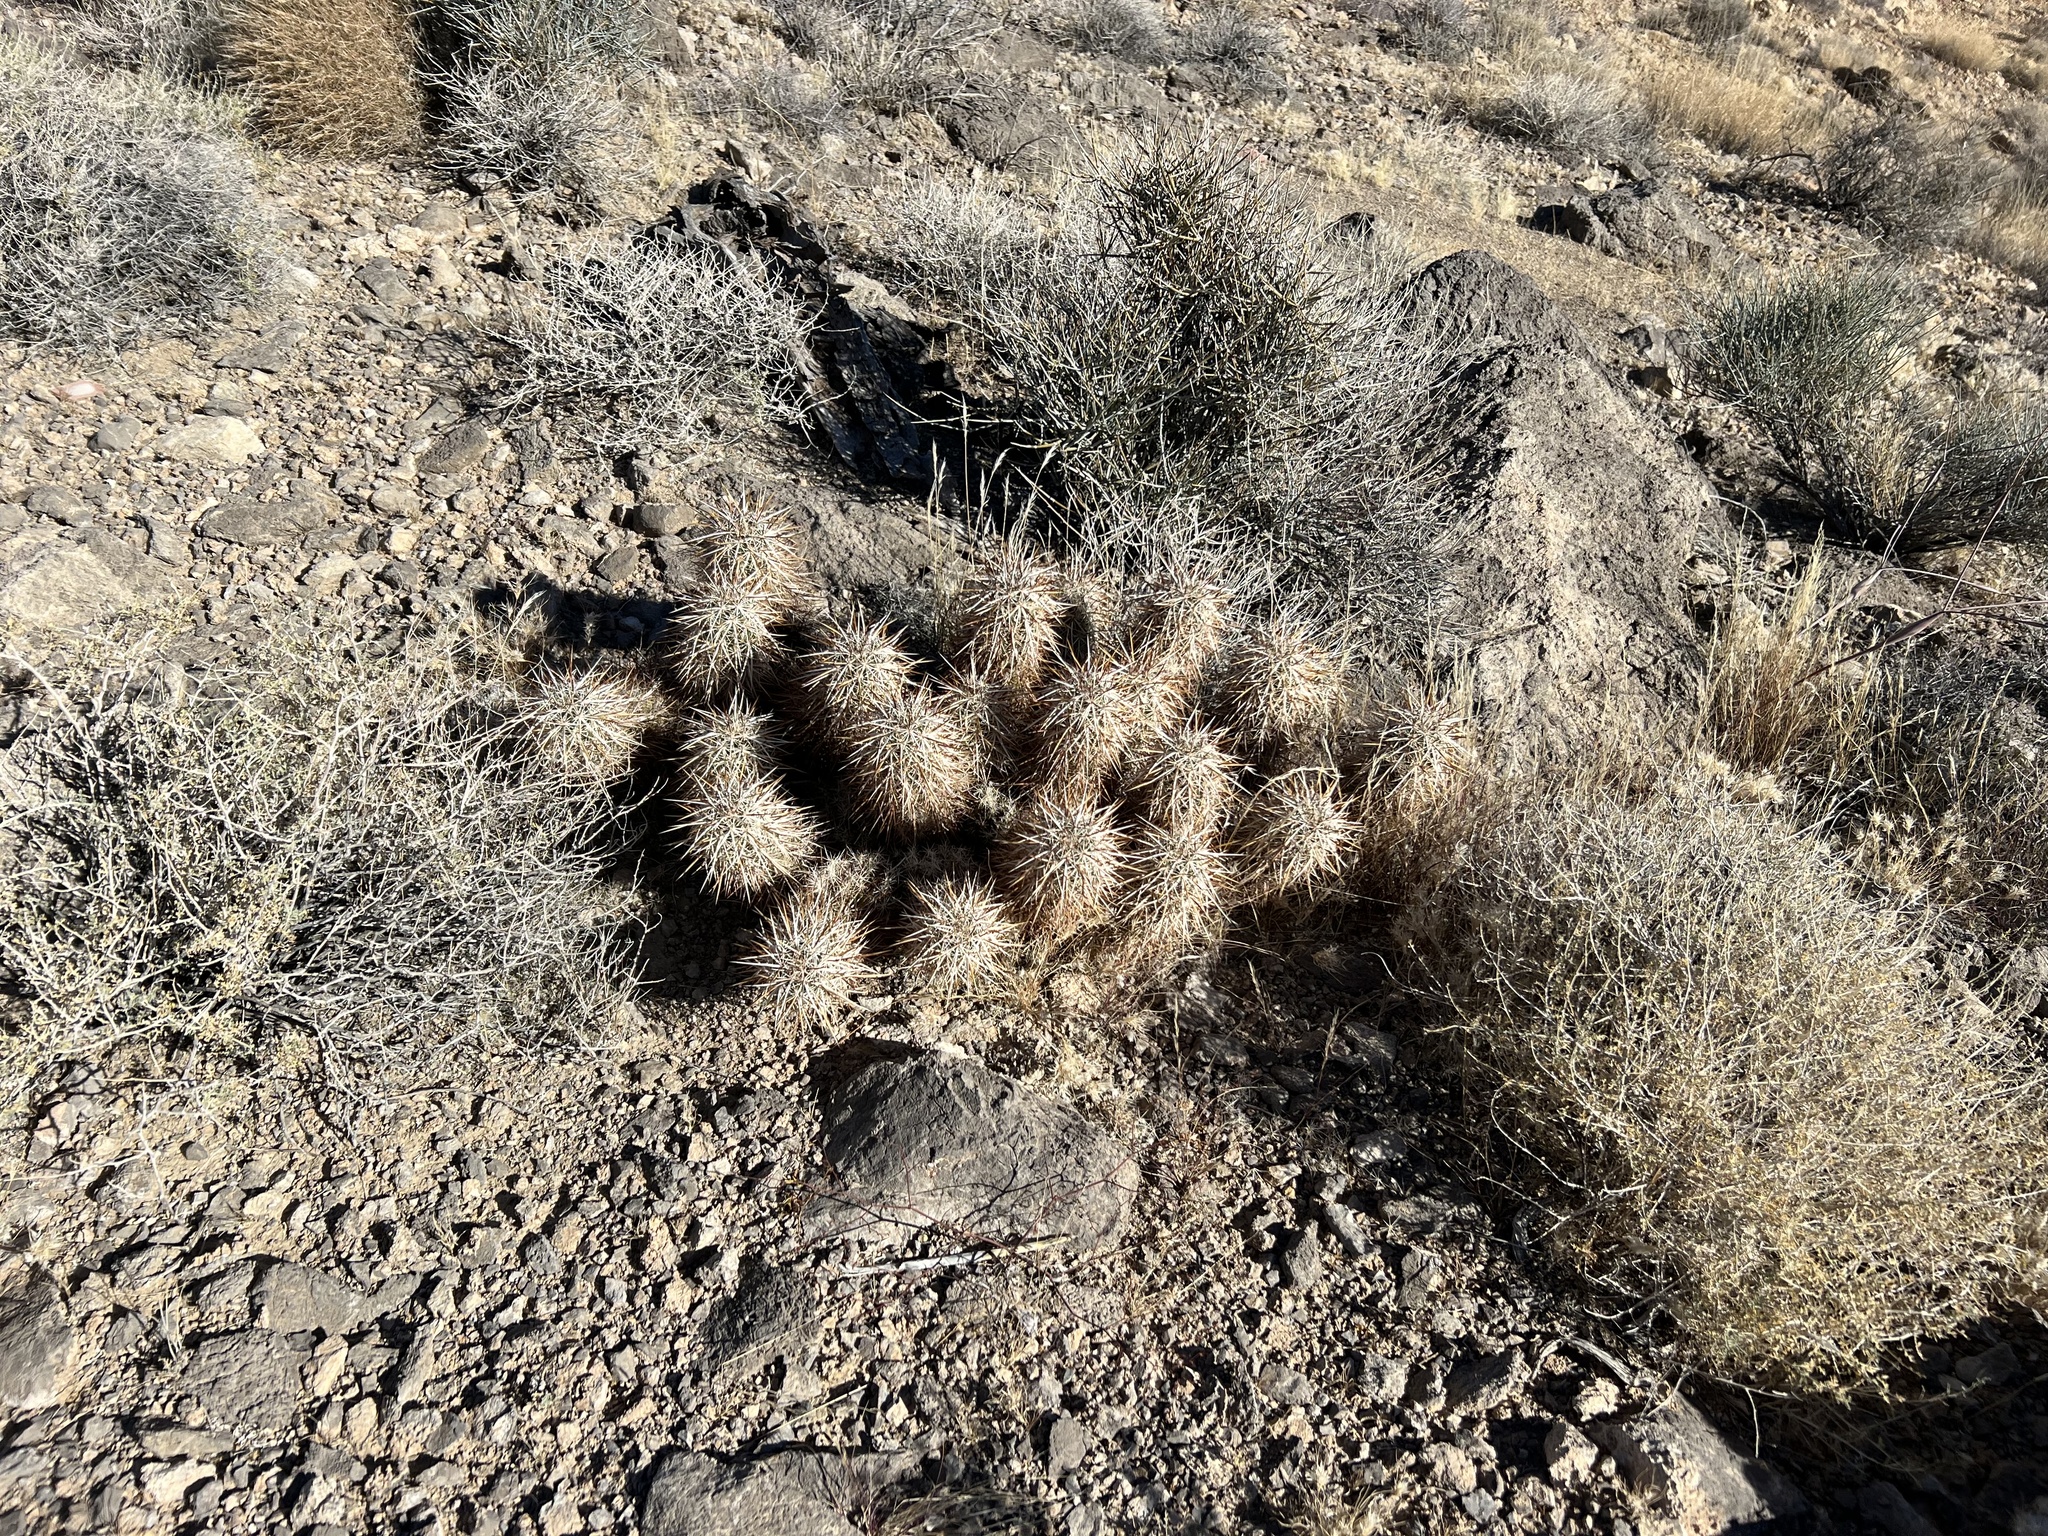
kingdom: Plantae
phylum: Tracheophyta
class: Magnoliopsida
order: Caryophyllales
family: Cactaceae
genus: Echinocereus
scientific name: Echinocereus engelmannii
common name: Engelmann's hedgehog cactus
